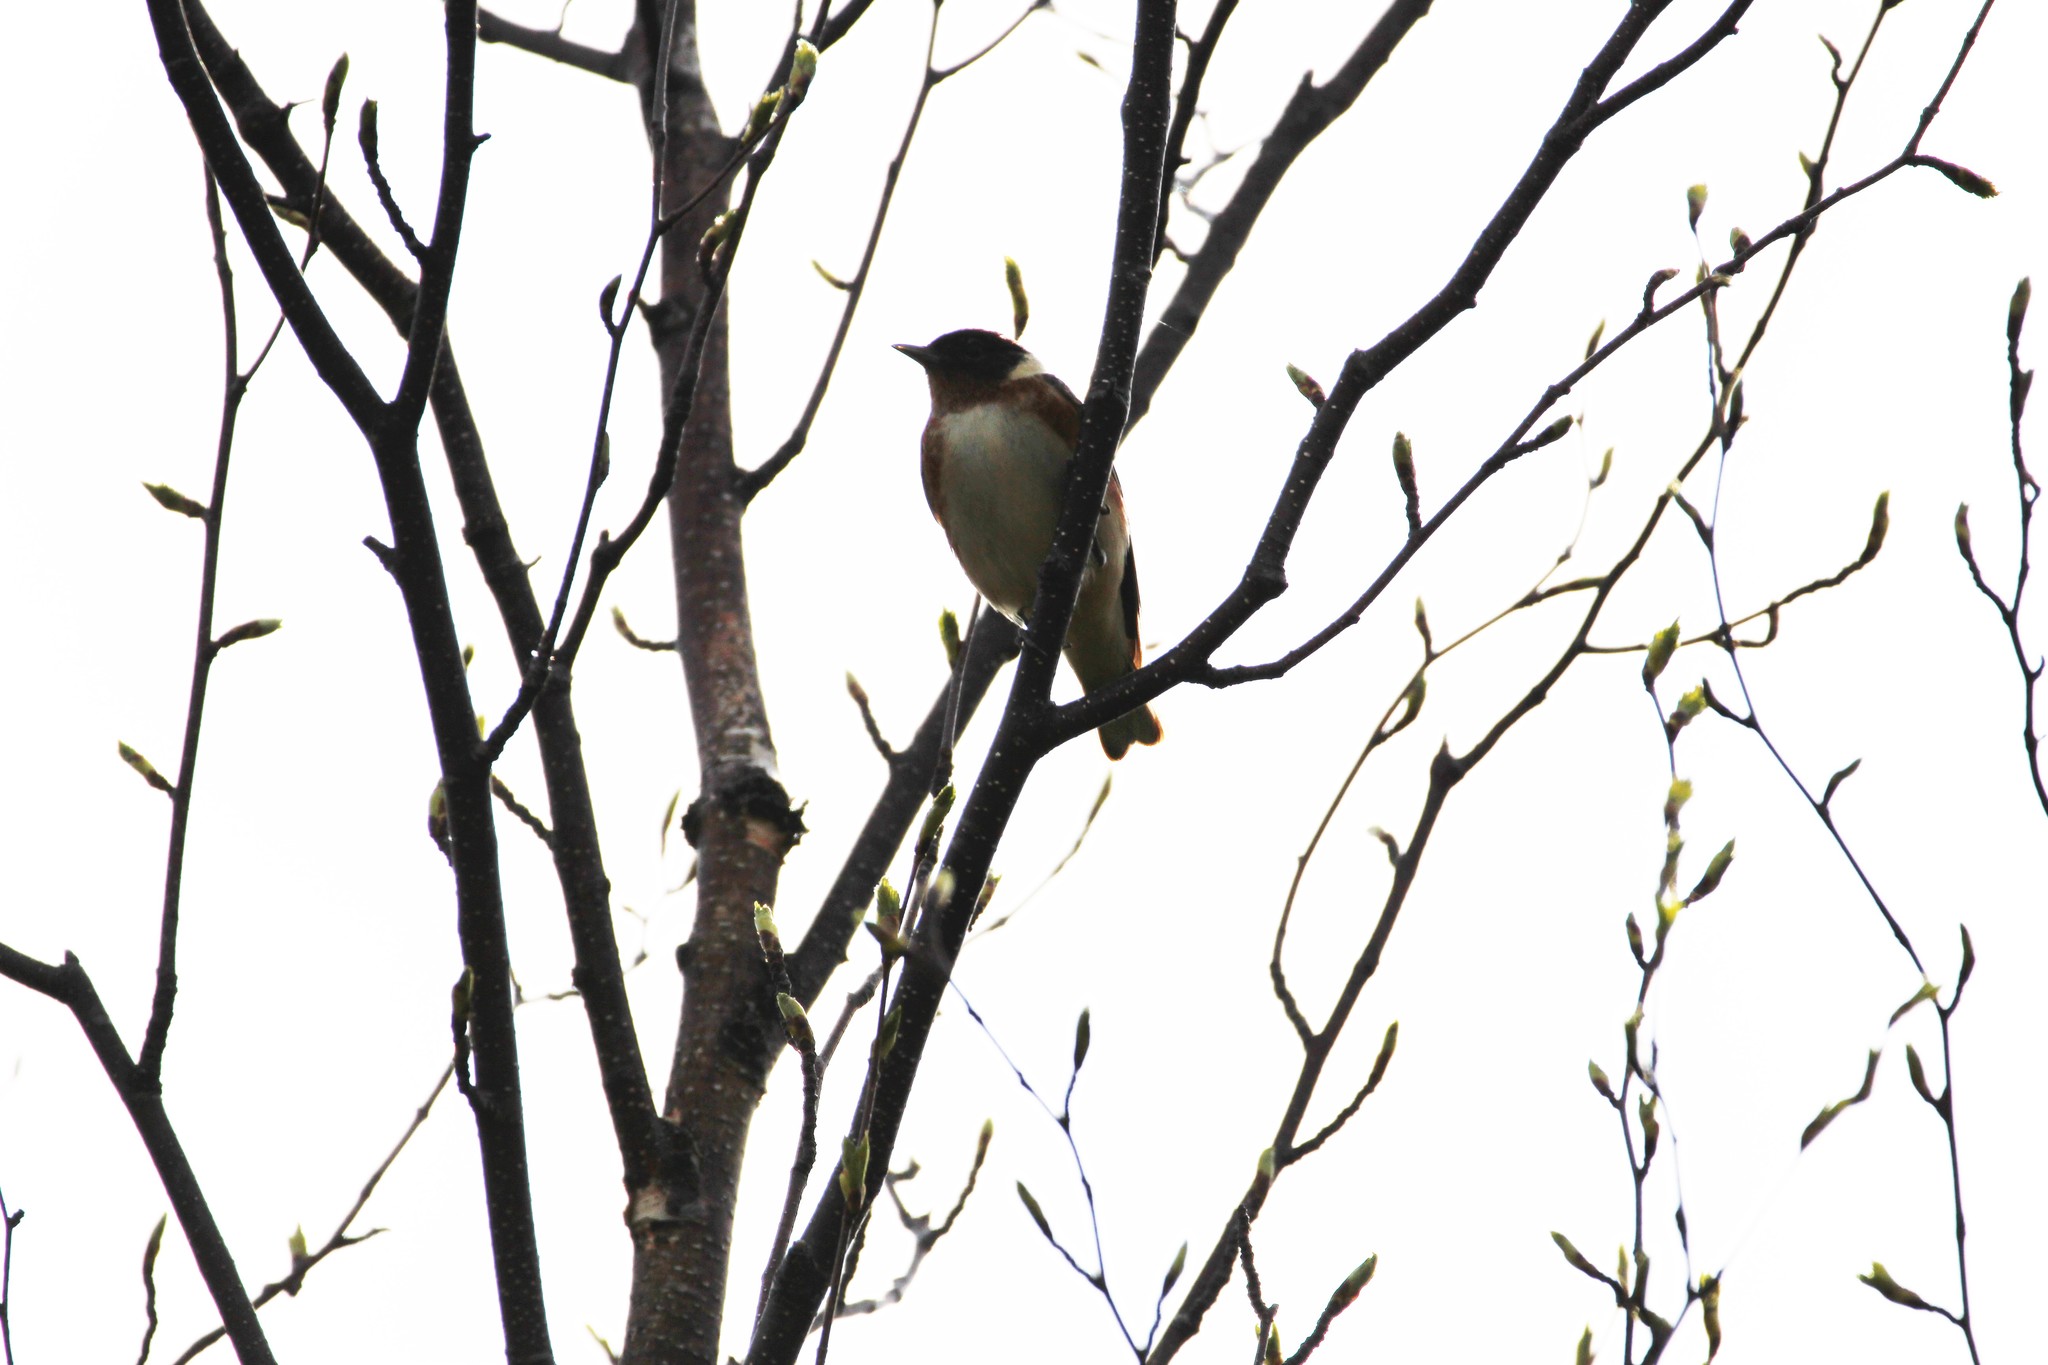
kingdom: Animalia
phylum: Chordata
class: Aves
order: Passeriformes
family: Parulidae
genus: Setophaga
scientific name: Setophaga castanea
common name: Bay-breasted warbler
